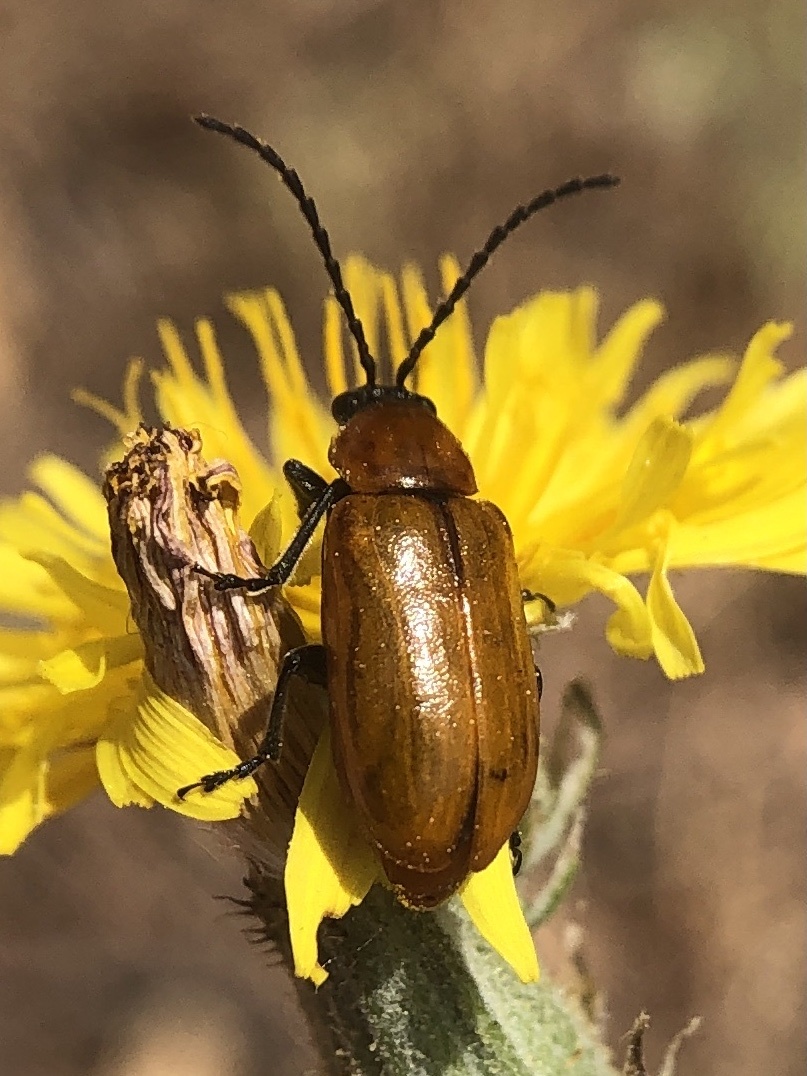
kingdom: Animalia
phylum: Arthropoda
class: Insecta
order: Coleoptera
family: Chrysomelidae
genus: Exosoma
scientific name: Exosoma lusitanicum
